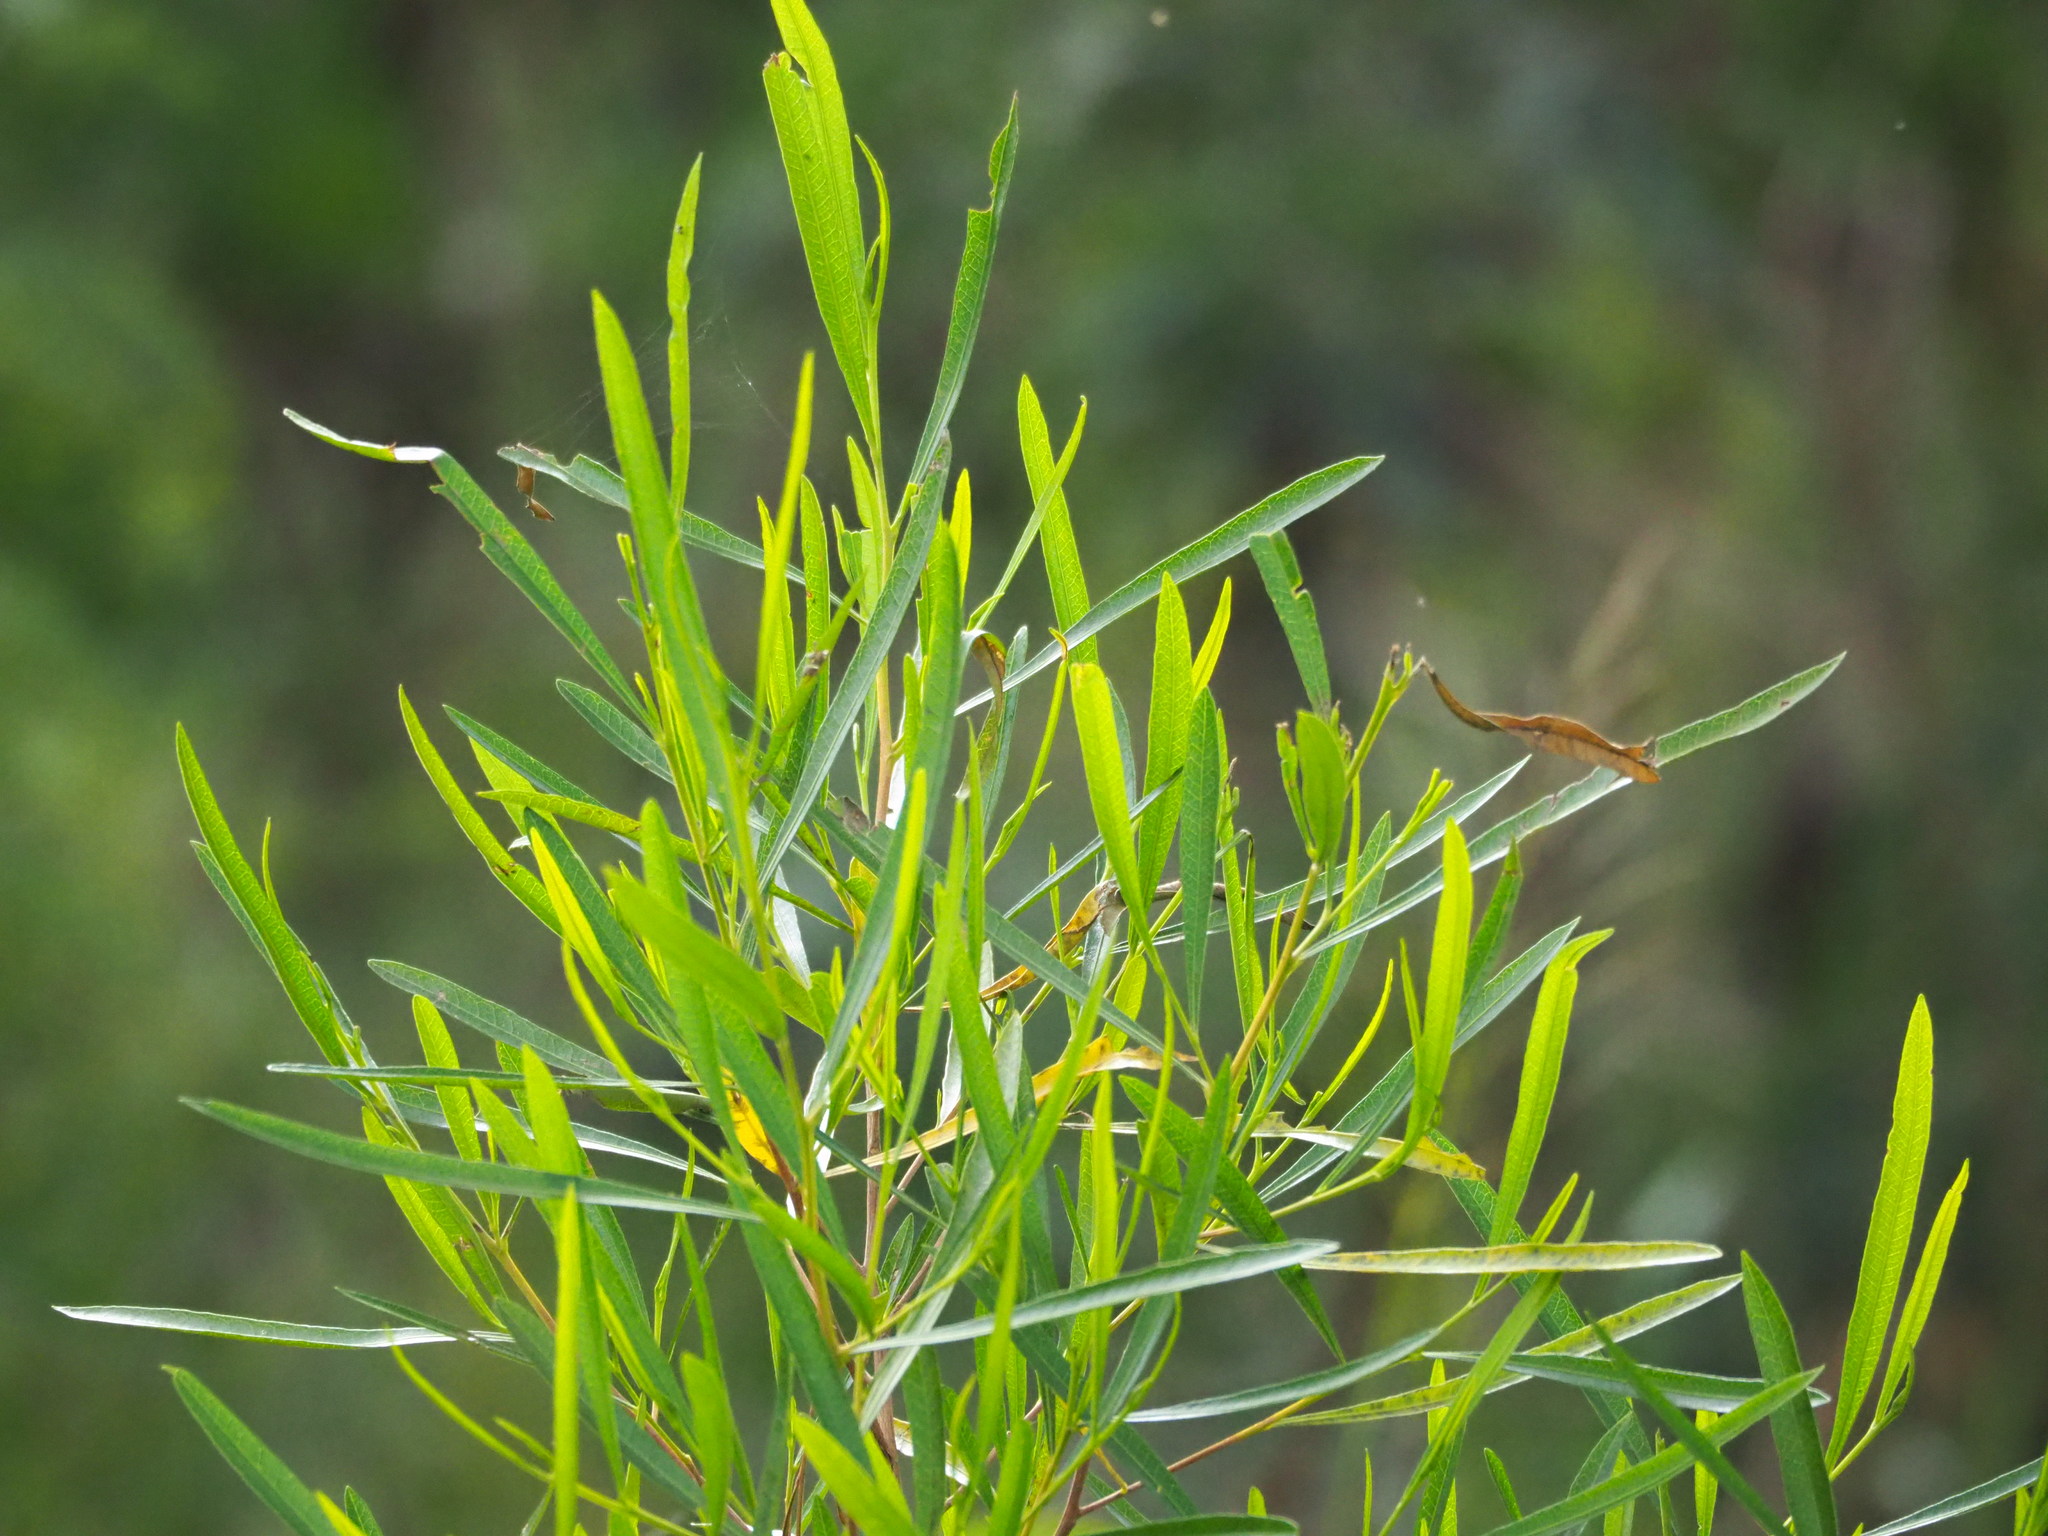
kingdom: Plantae
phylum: Tracheophyta
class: Magnoliopsida
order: Sapindales
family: Sapindaceae
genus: Dodonaea
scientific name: Dodonaea viscosa
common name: Hopbush
